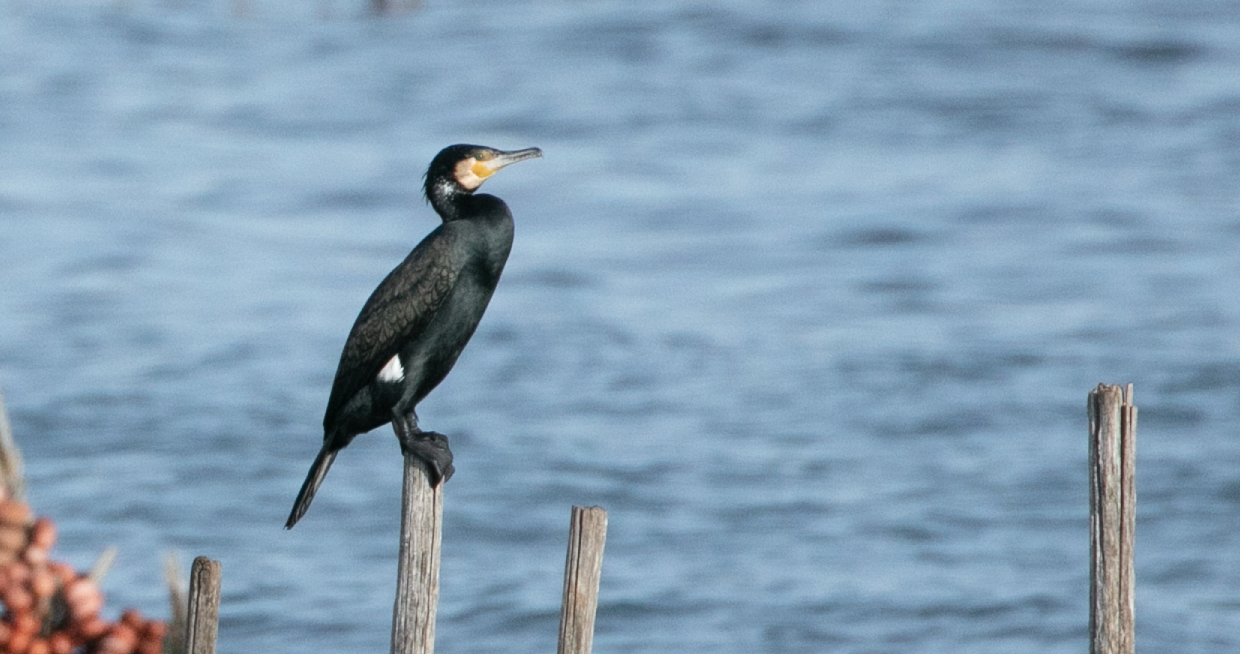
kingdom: Animalia
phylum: Chordata
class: Aves
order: Suliformes
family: Phalacrocoracidae
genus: Phalacrocorax
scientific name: Phalacrocorax carbo
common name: Great cormorant
